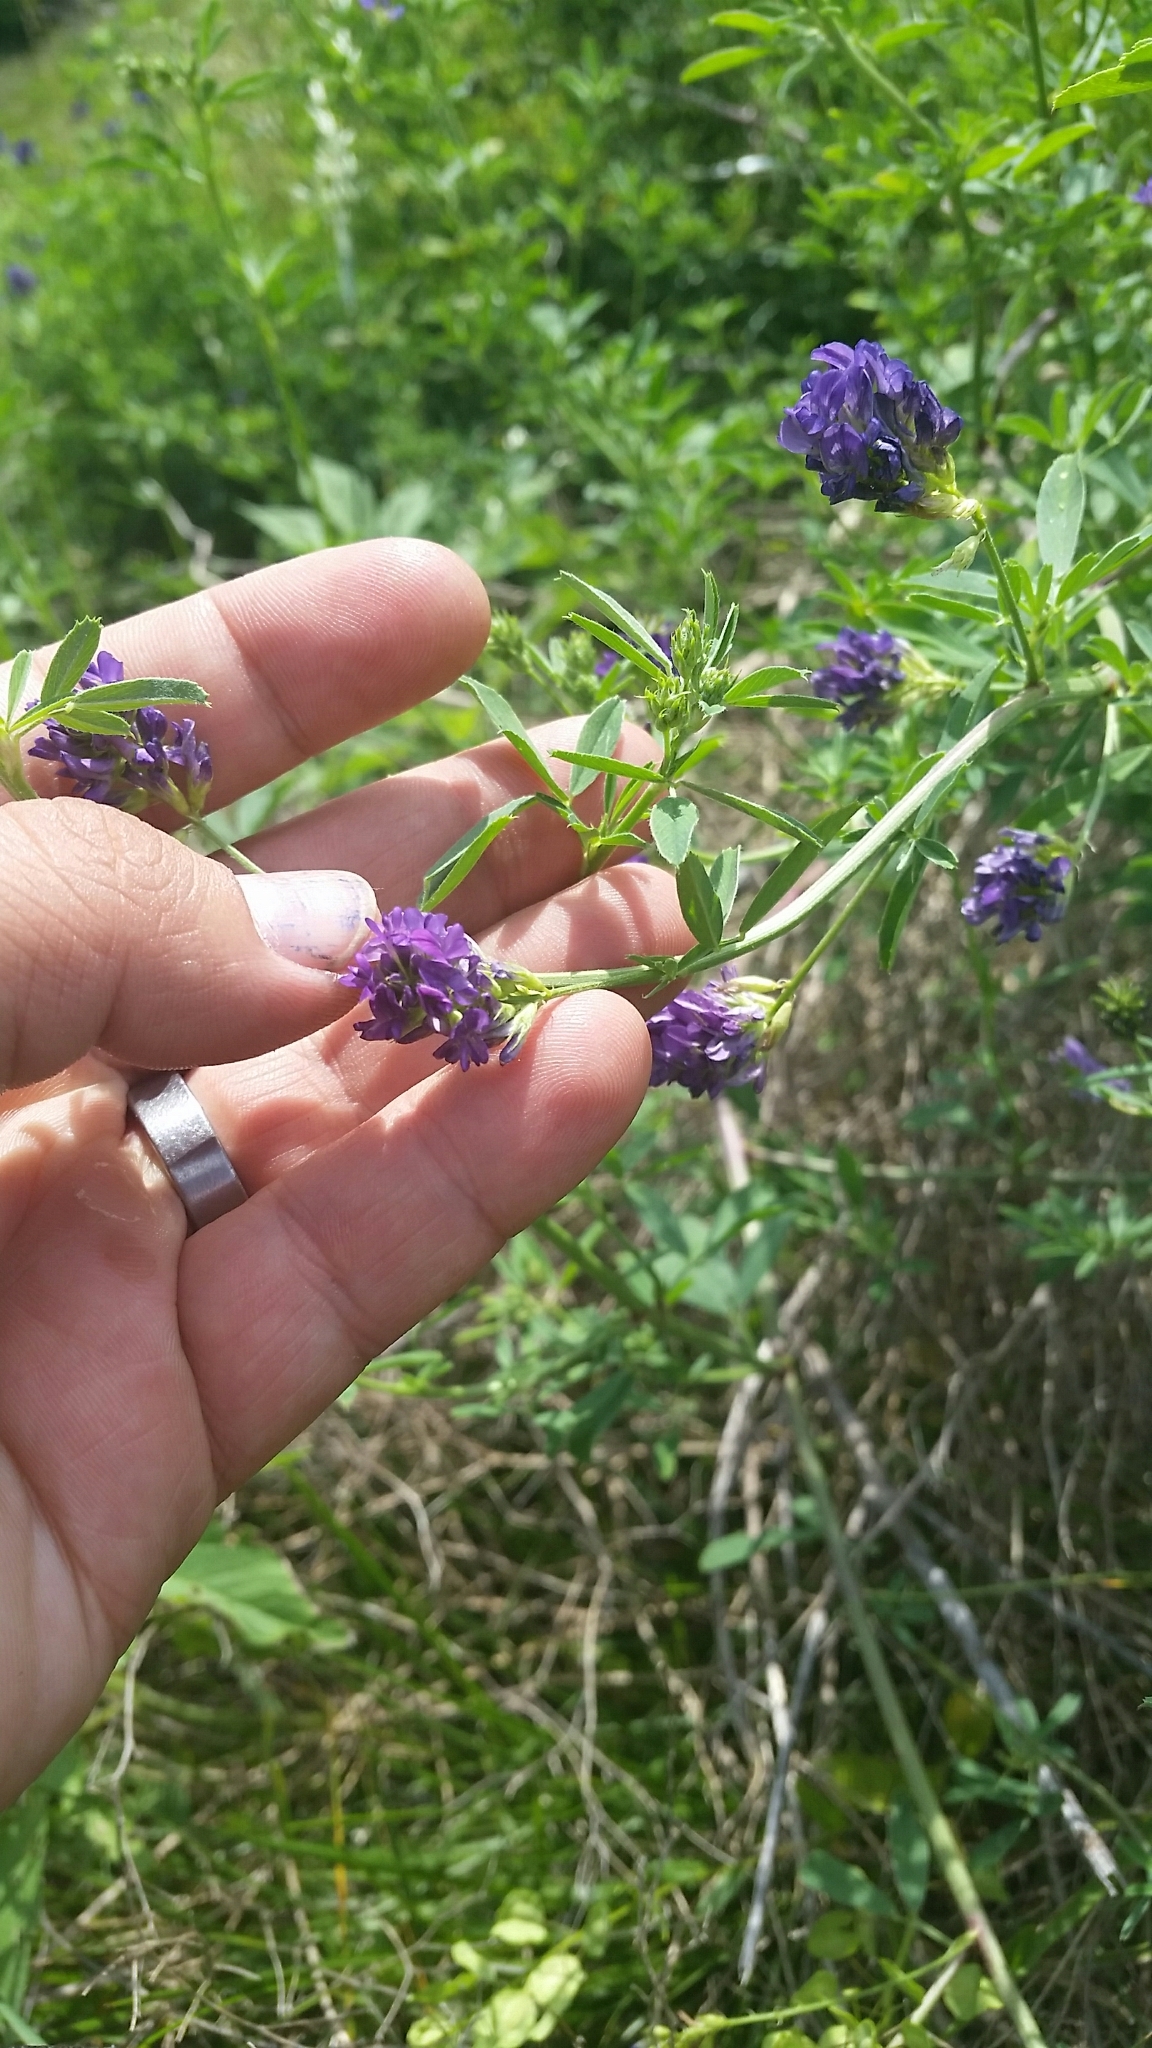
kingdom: Plantae
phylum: Tracheophyta
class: Magnoliopsida
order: Fabales
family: Fabaceae
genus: Medicago
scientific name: Medicago sativa
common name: Alfalfa
